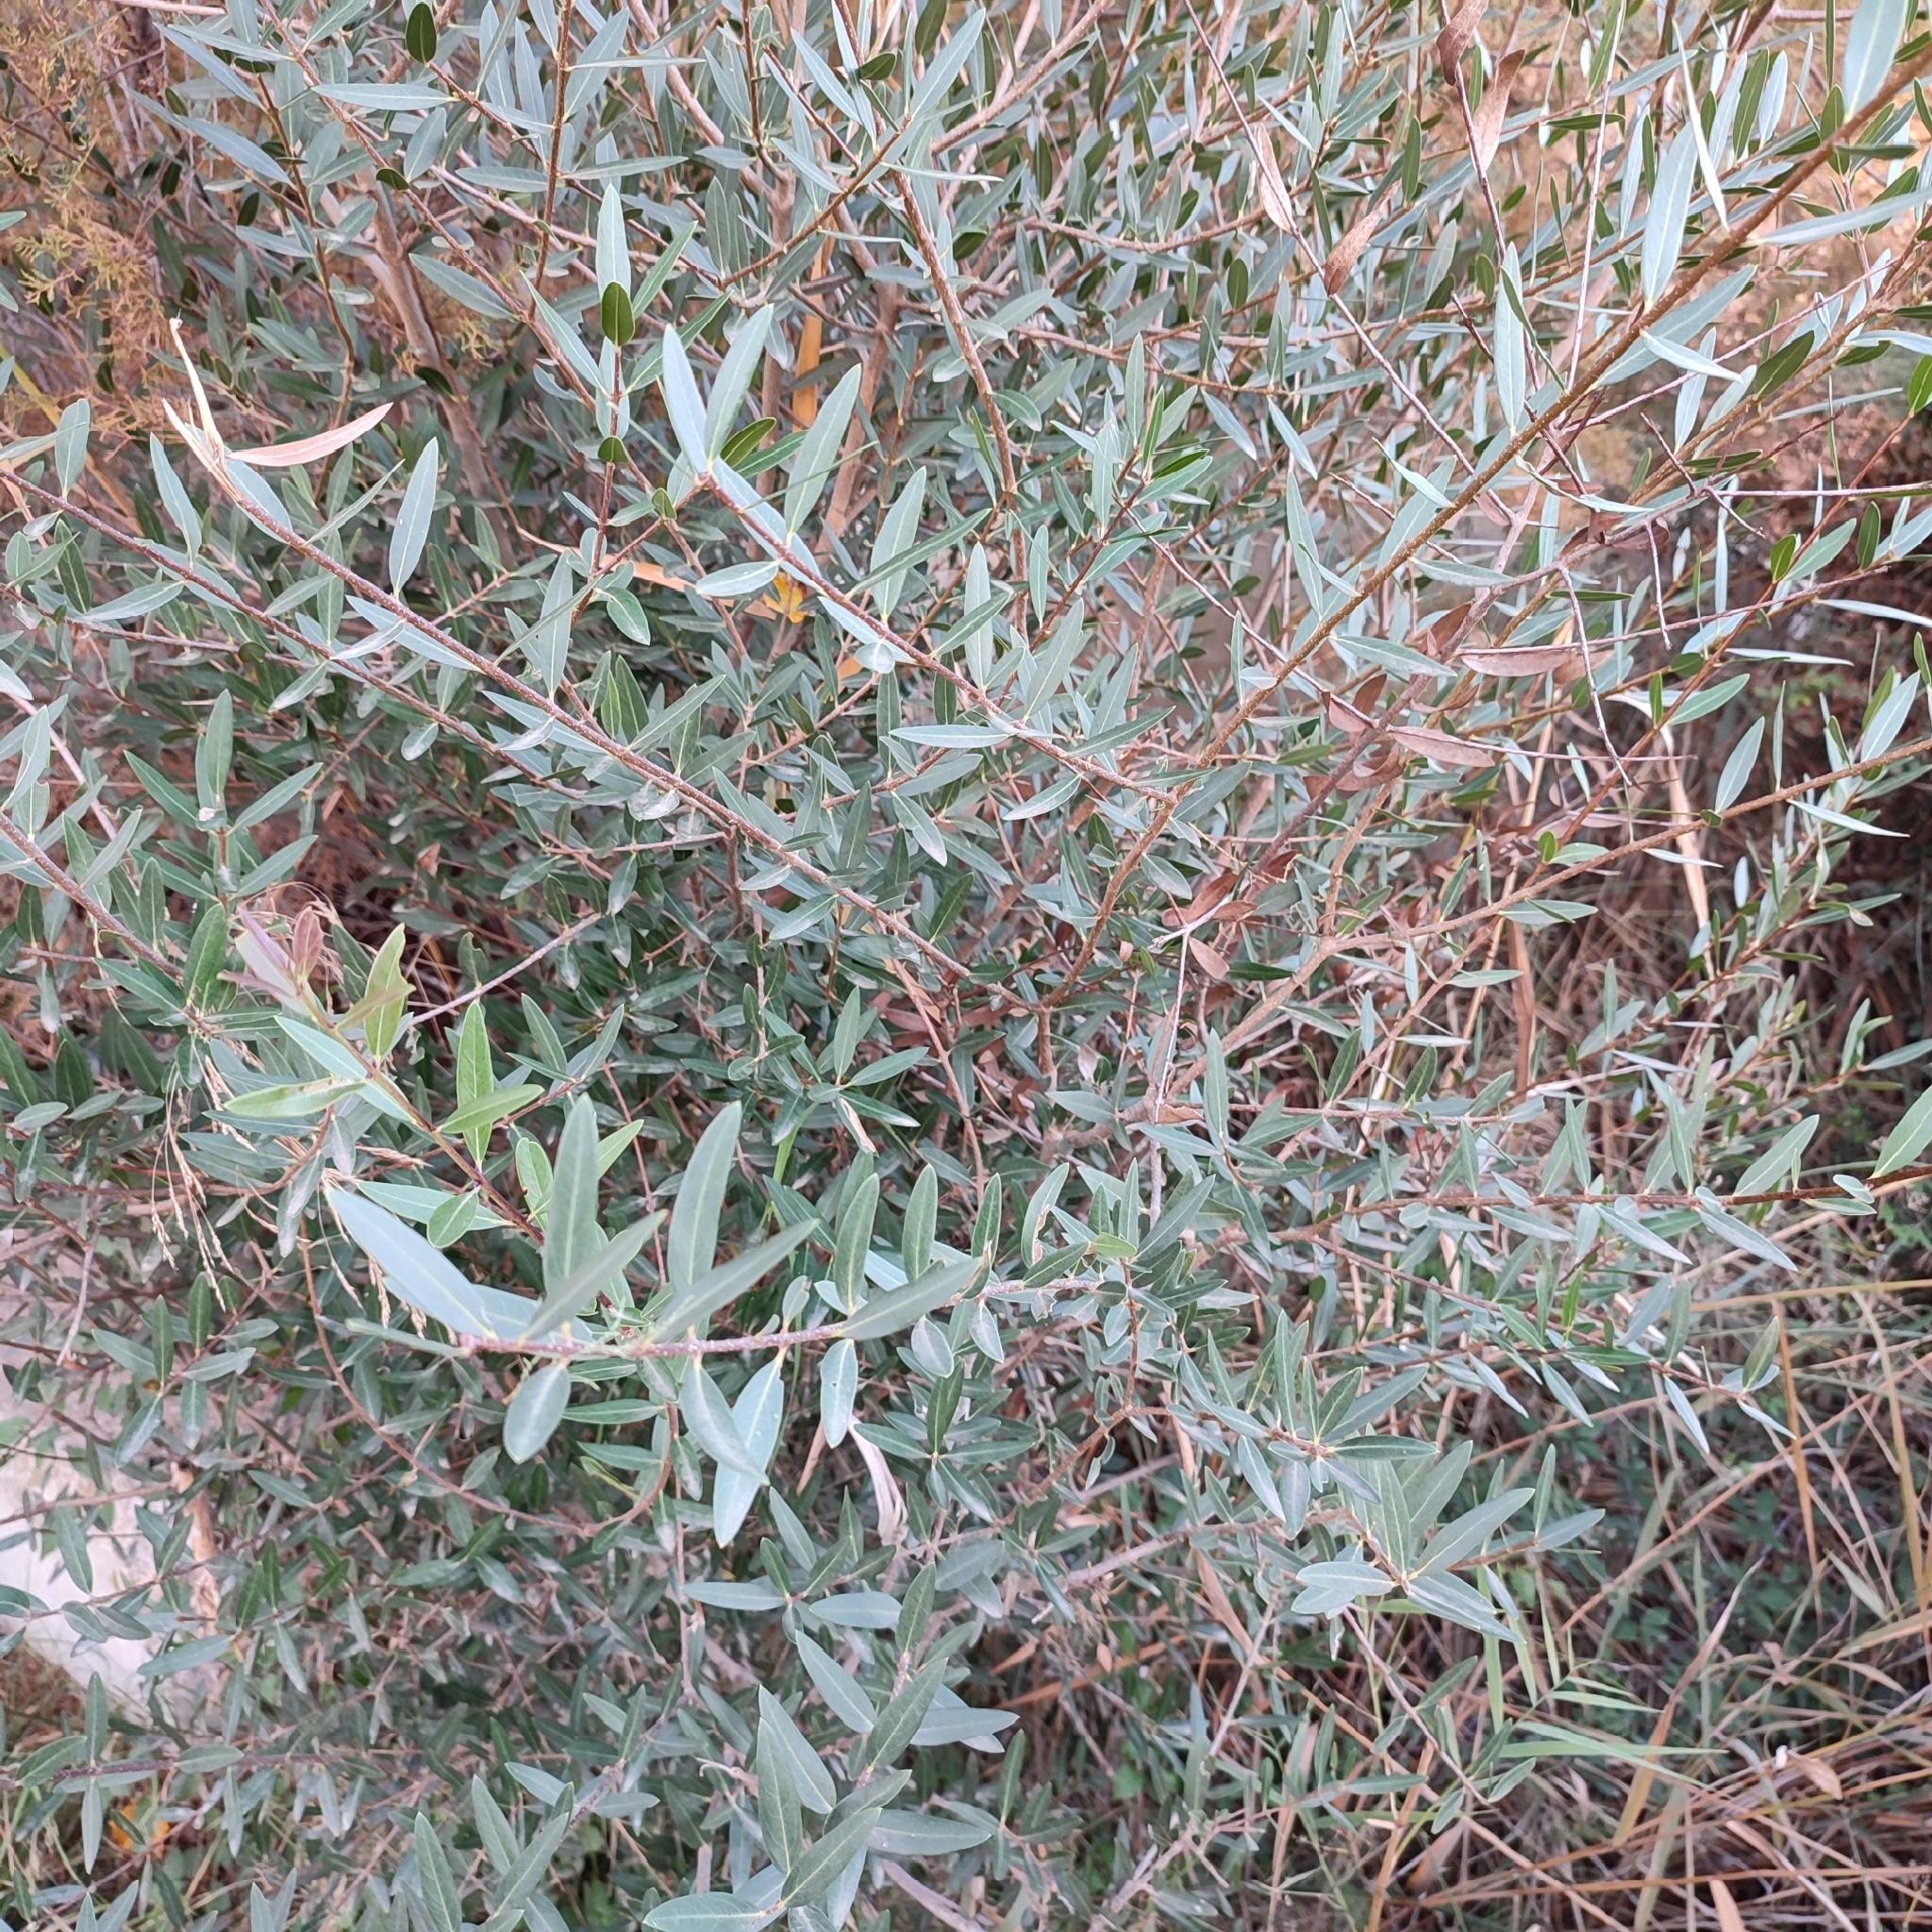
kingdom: Plantae
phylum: Tracheophyta
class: Magnoliopsida
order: Lamiales
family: Oleaceae
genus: Phillyrea
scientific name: Phillyrea angustifolia
